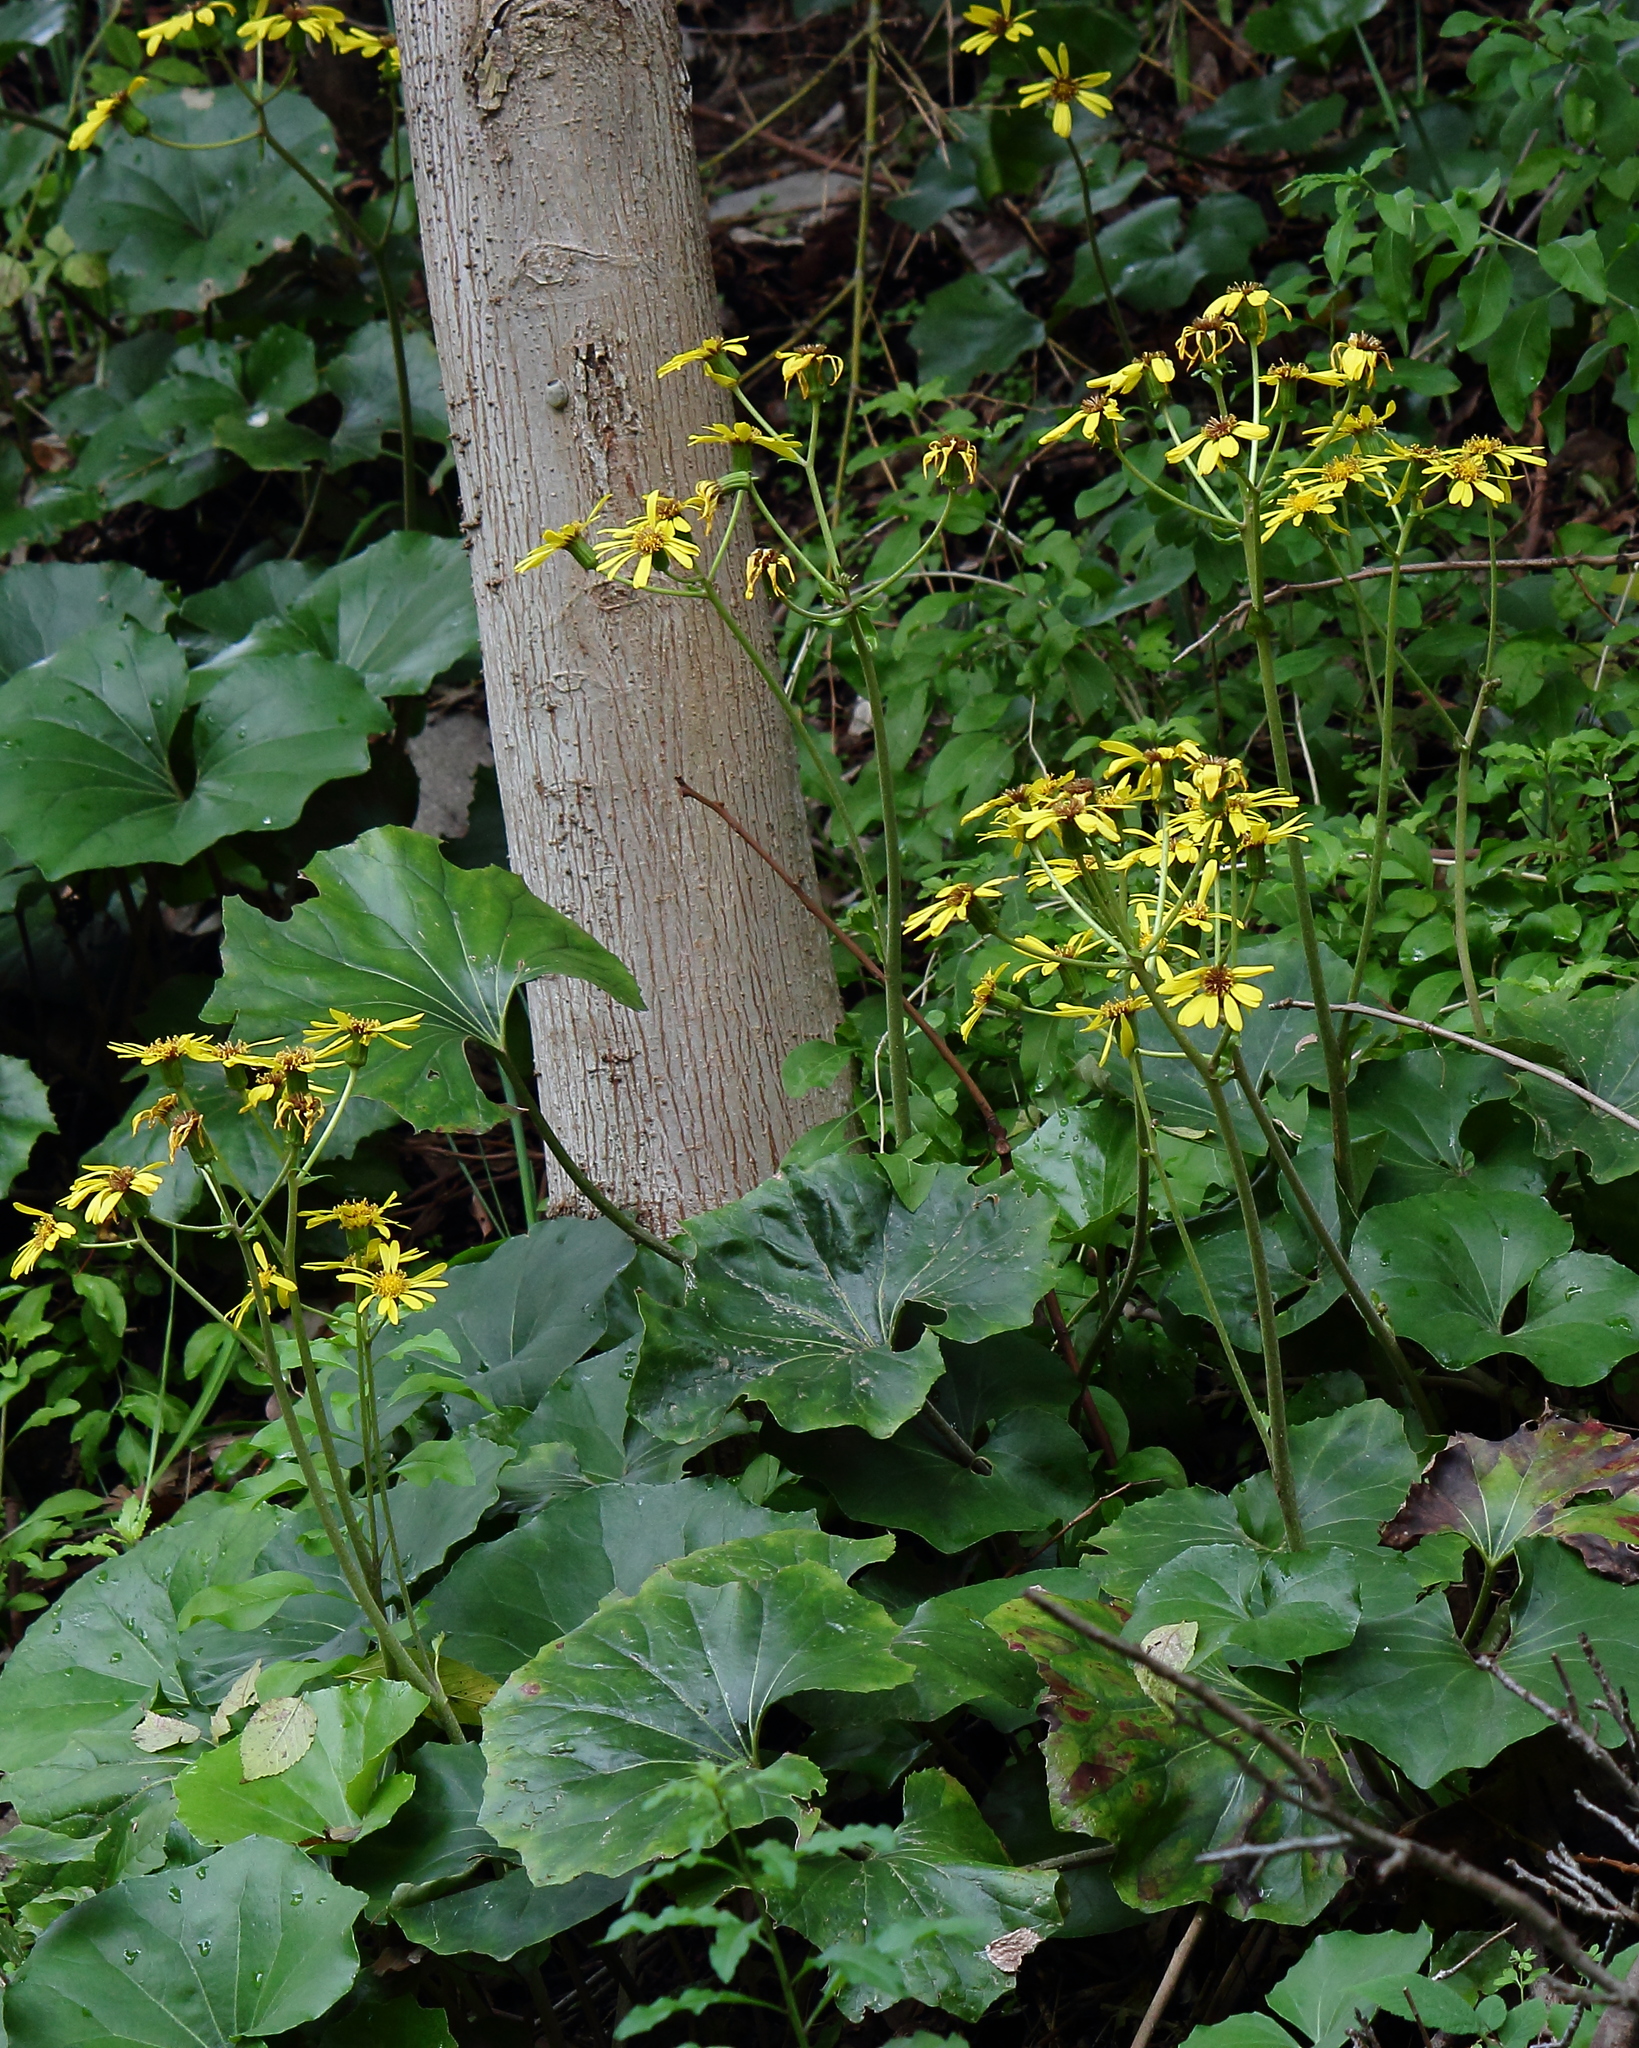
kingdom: Plantae
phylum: Tracheophyta
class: Magnoliopsida
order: Asterales
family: Asteraceae
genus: Farfugium
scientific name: Farfugium japonicum
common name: Leopardplant
